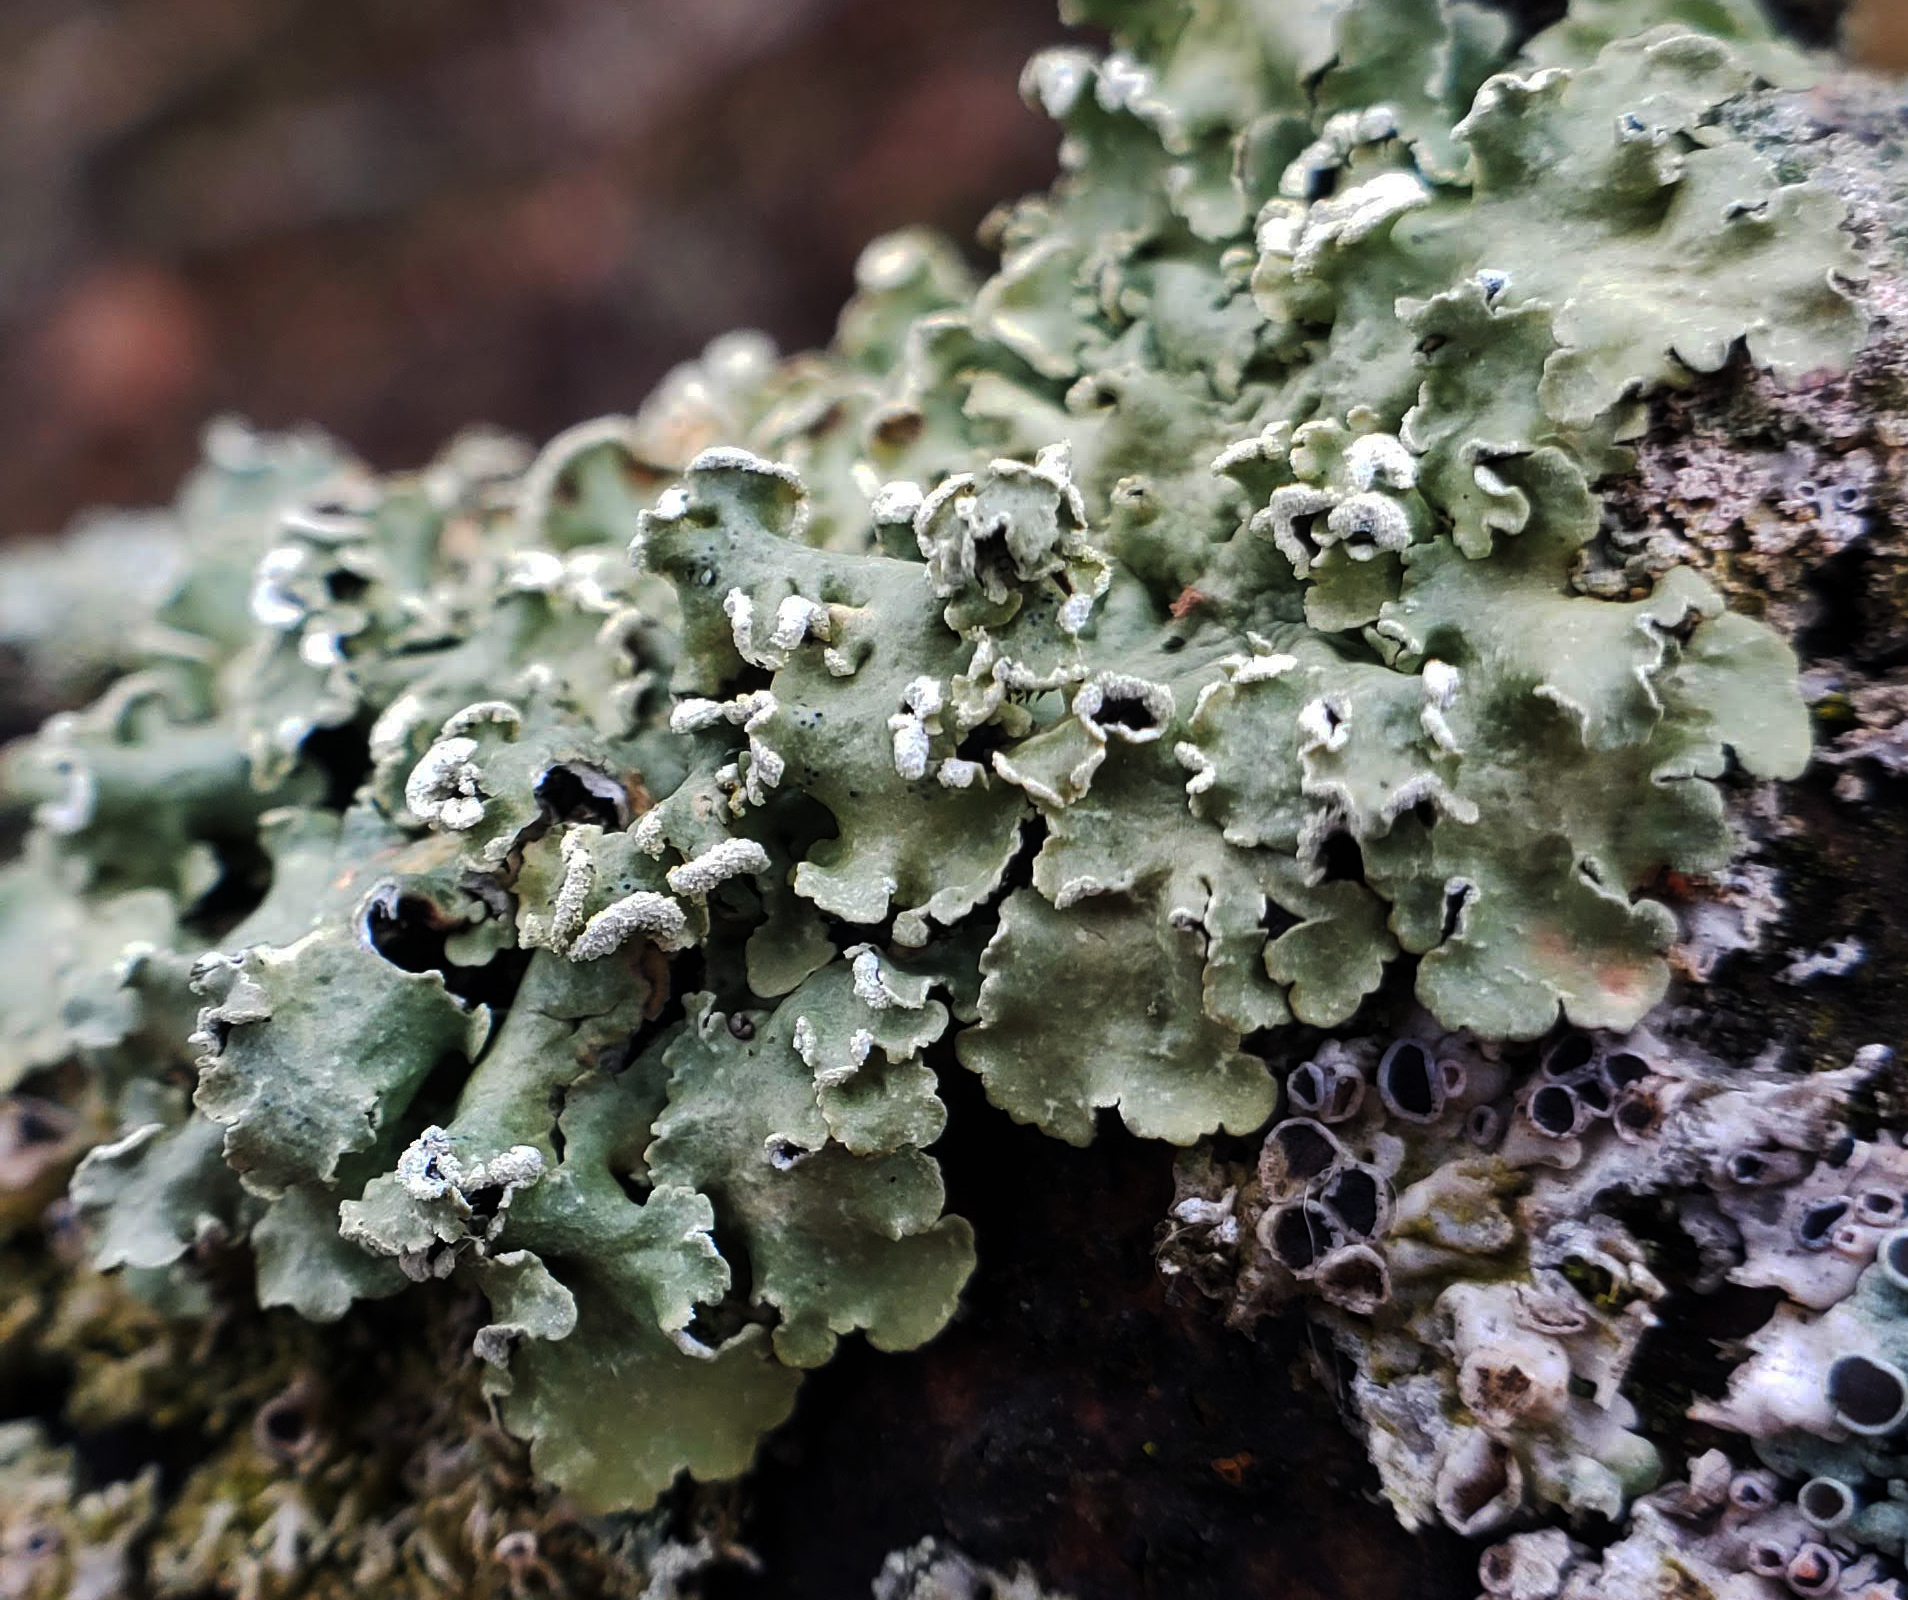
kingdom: Fungi
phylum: Ascomycota
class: Lecanoromycetes
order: Lecanorales
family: Parmeliaceae
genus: Flavopunctelia
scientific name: Flavopunctelia soredica
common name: Powder-edged speckled greenshield
